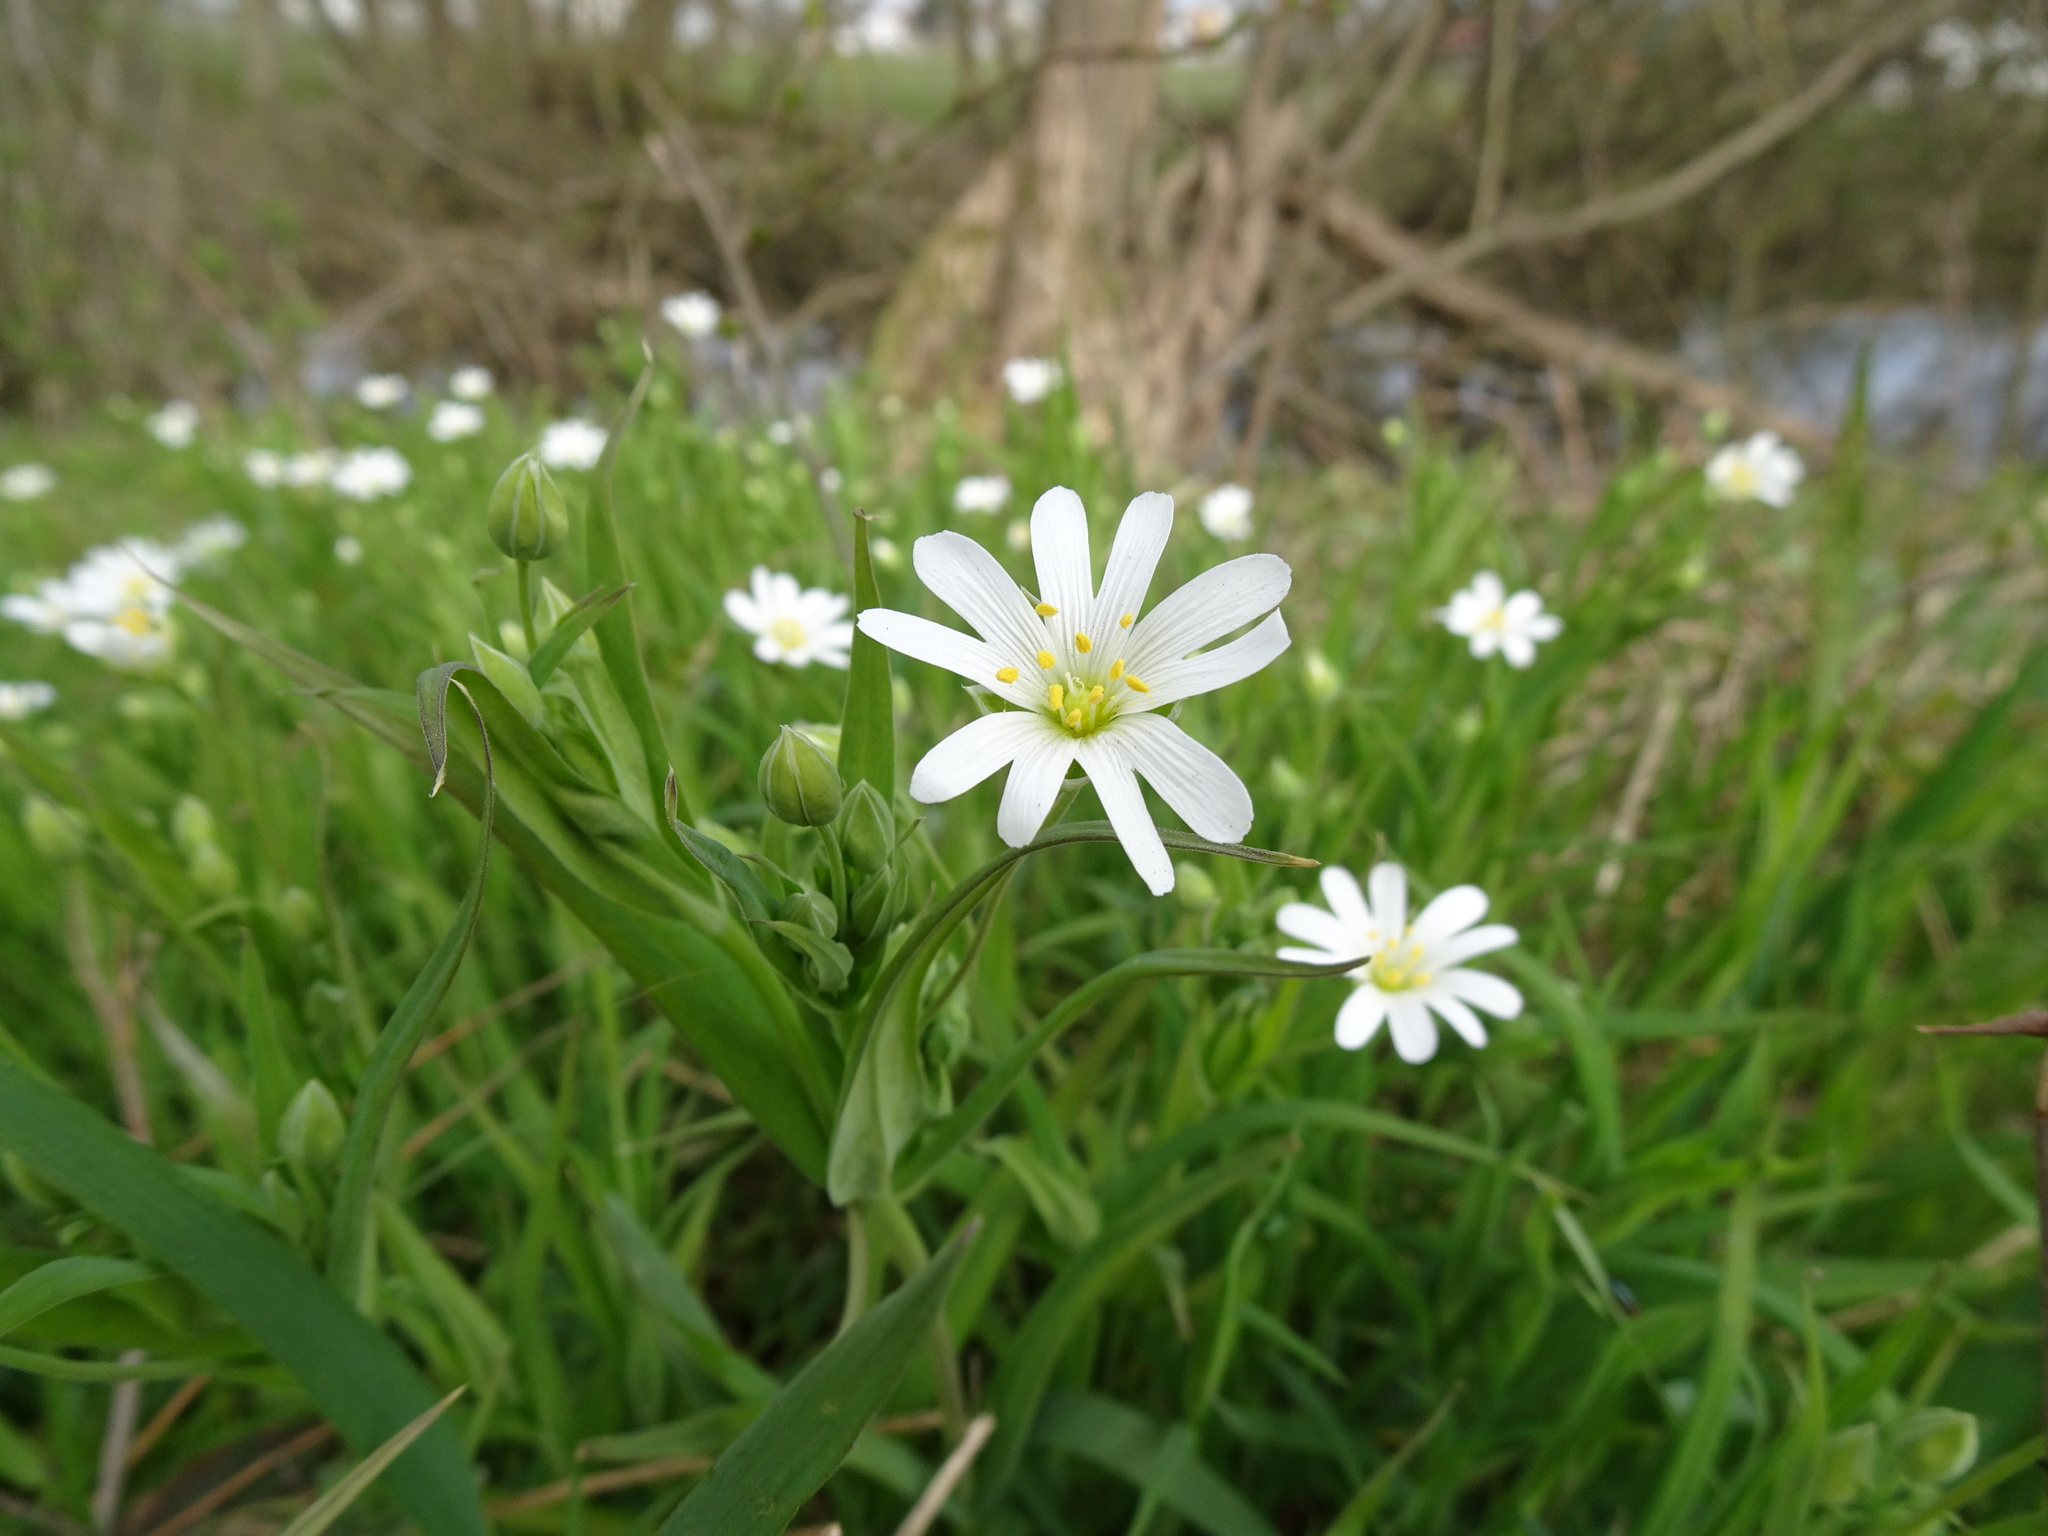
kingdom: Plantae
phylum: Tracheophyta
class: Magnoliopsida
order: Caryophyllales
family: Caryophyllaceae
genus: Rabelera
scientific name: Rabelera holostea
